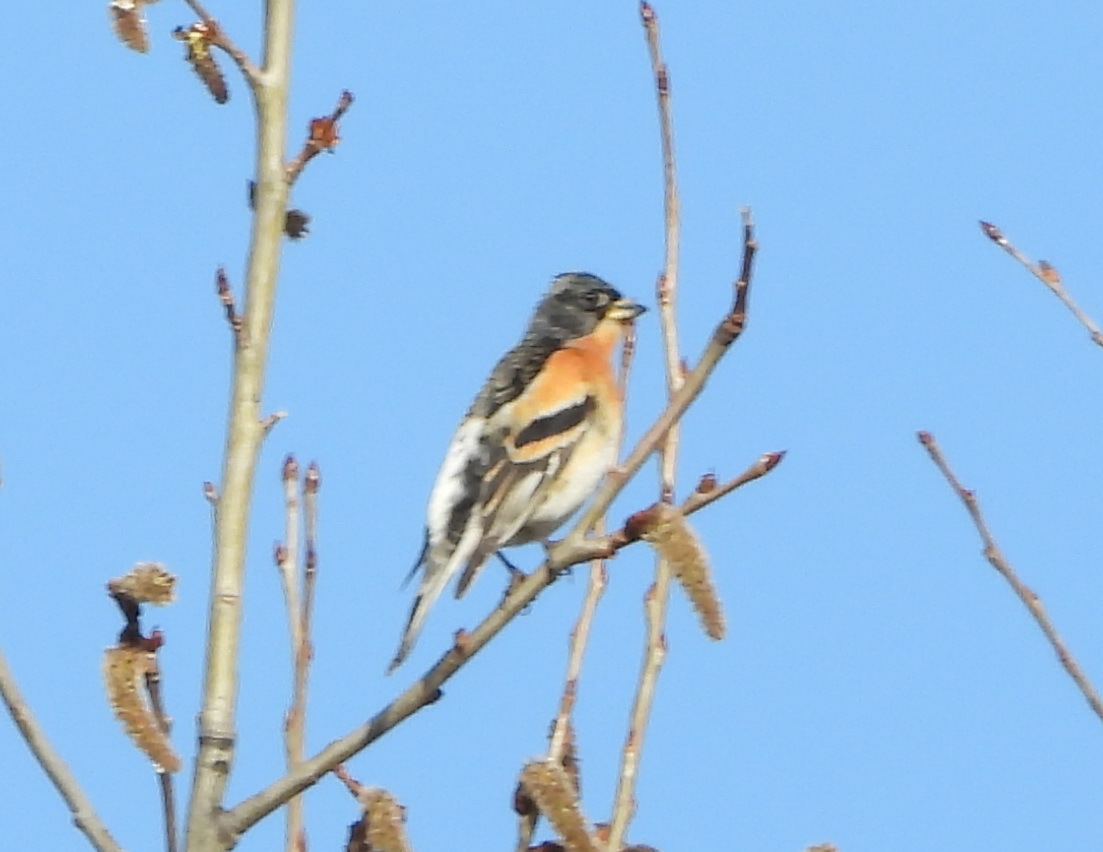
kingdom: Animalia
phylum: Chordata
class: Aves
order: Passeriformes
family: Fringillidae
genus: Fringilla
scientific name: Fringilla montifringilla
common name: Brambling
